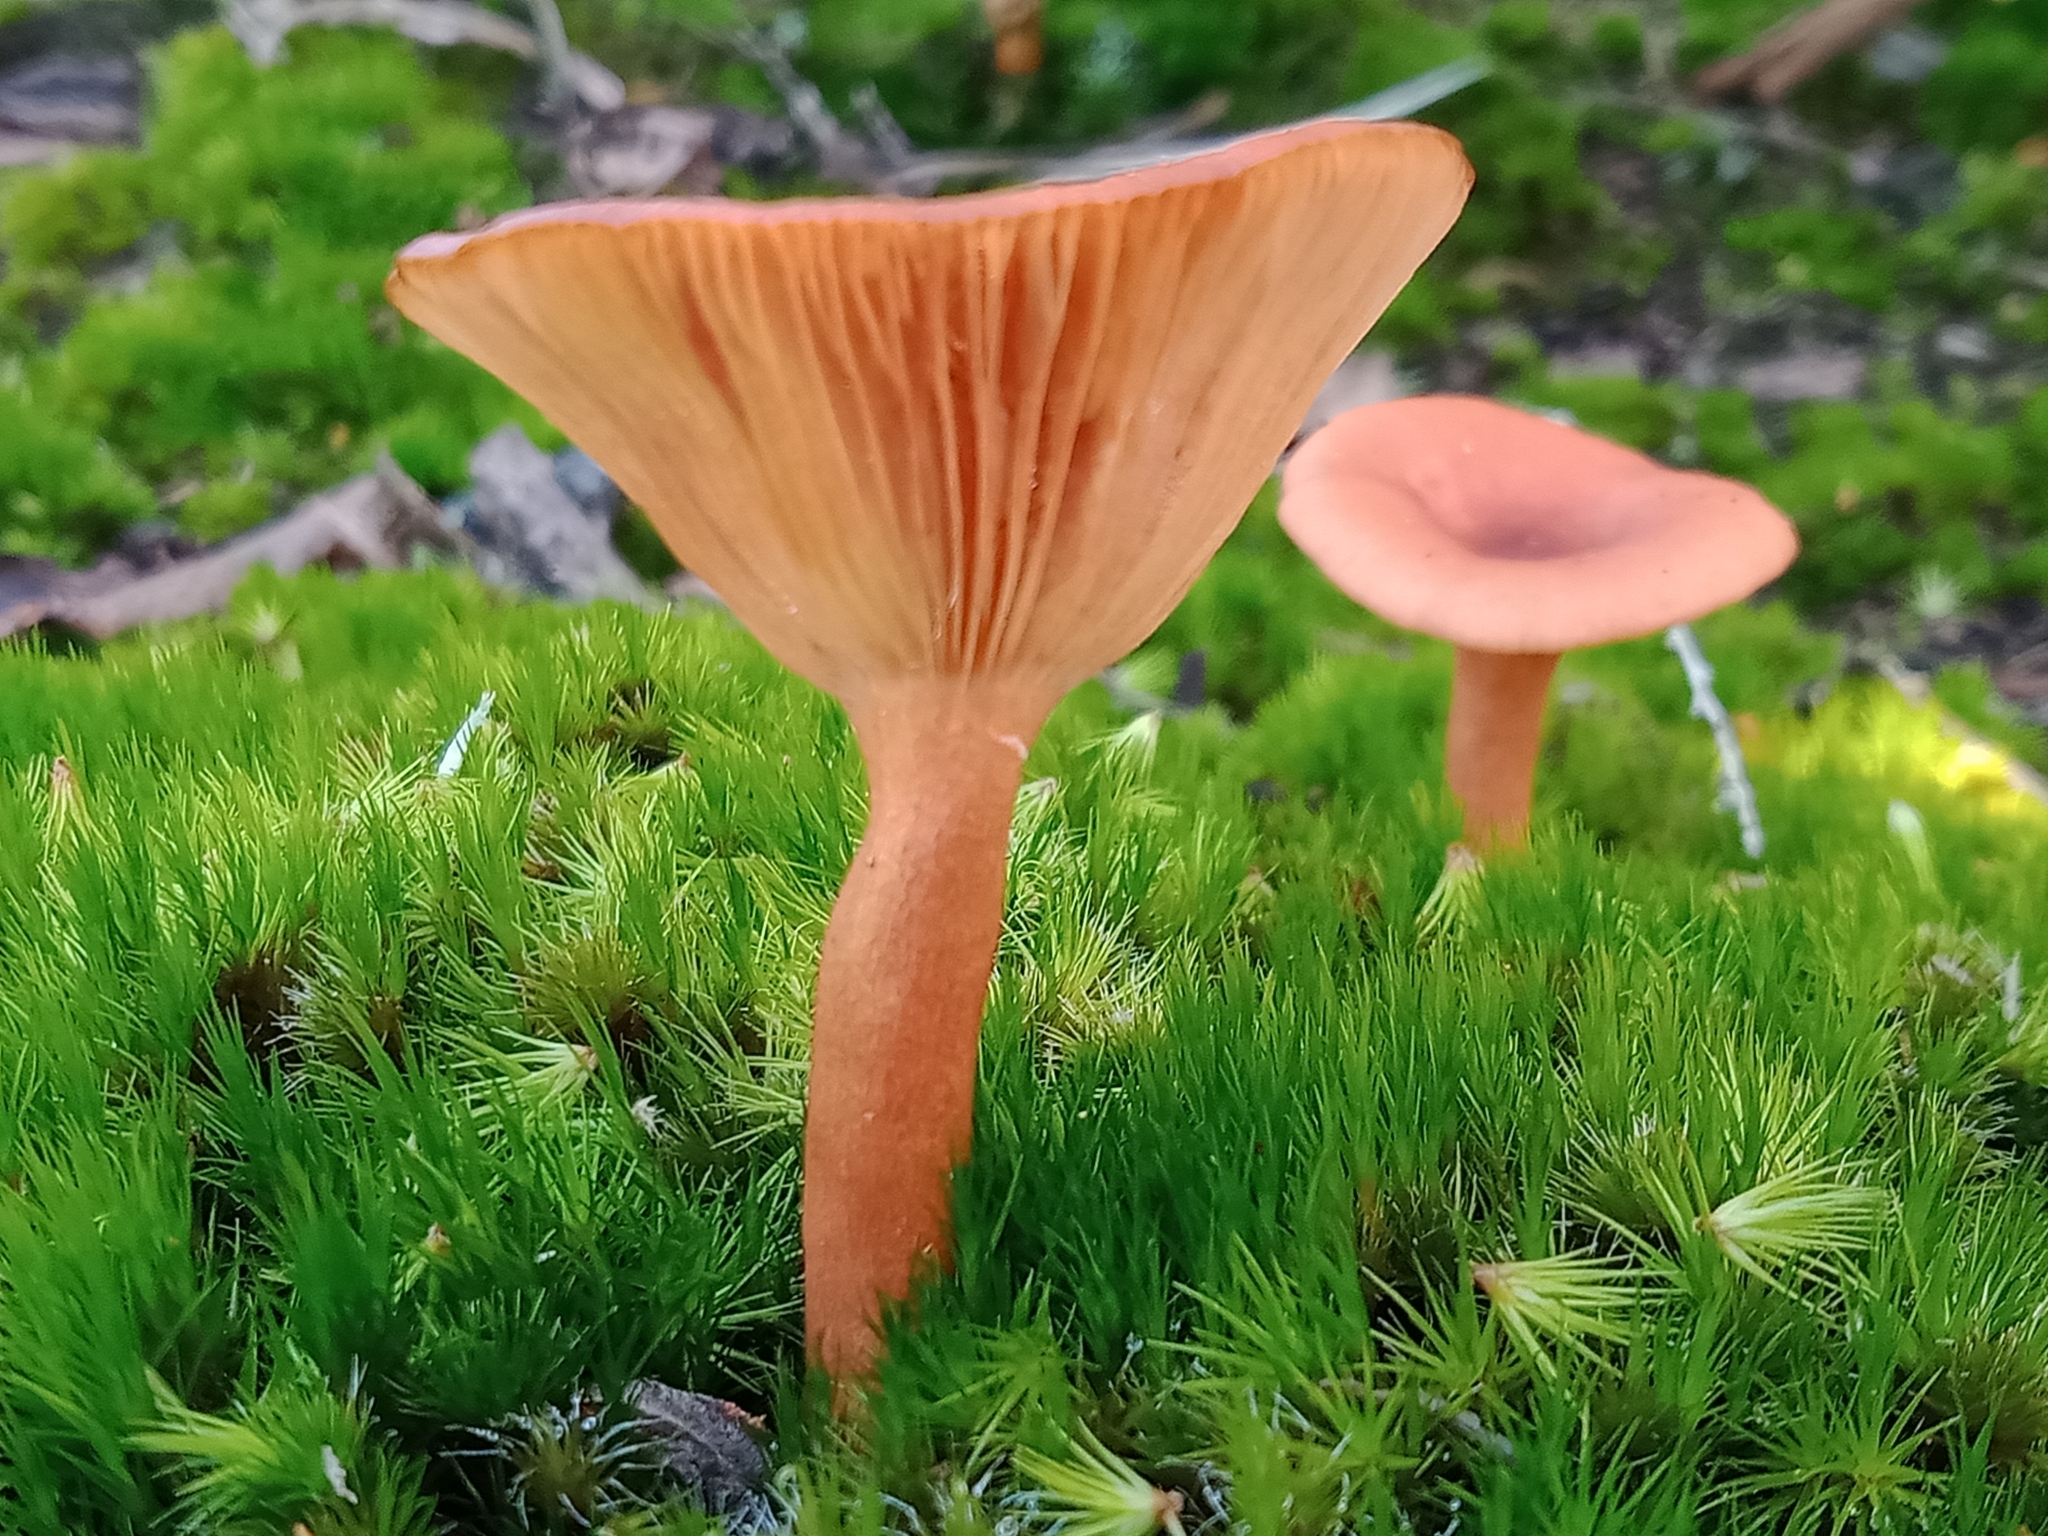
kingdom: Fungi
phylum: Basidiomycota
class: Agaricomycetes
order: Russulales
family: Russulaceae
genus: Lactarius
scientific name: Lactarius eucalypti
